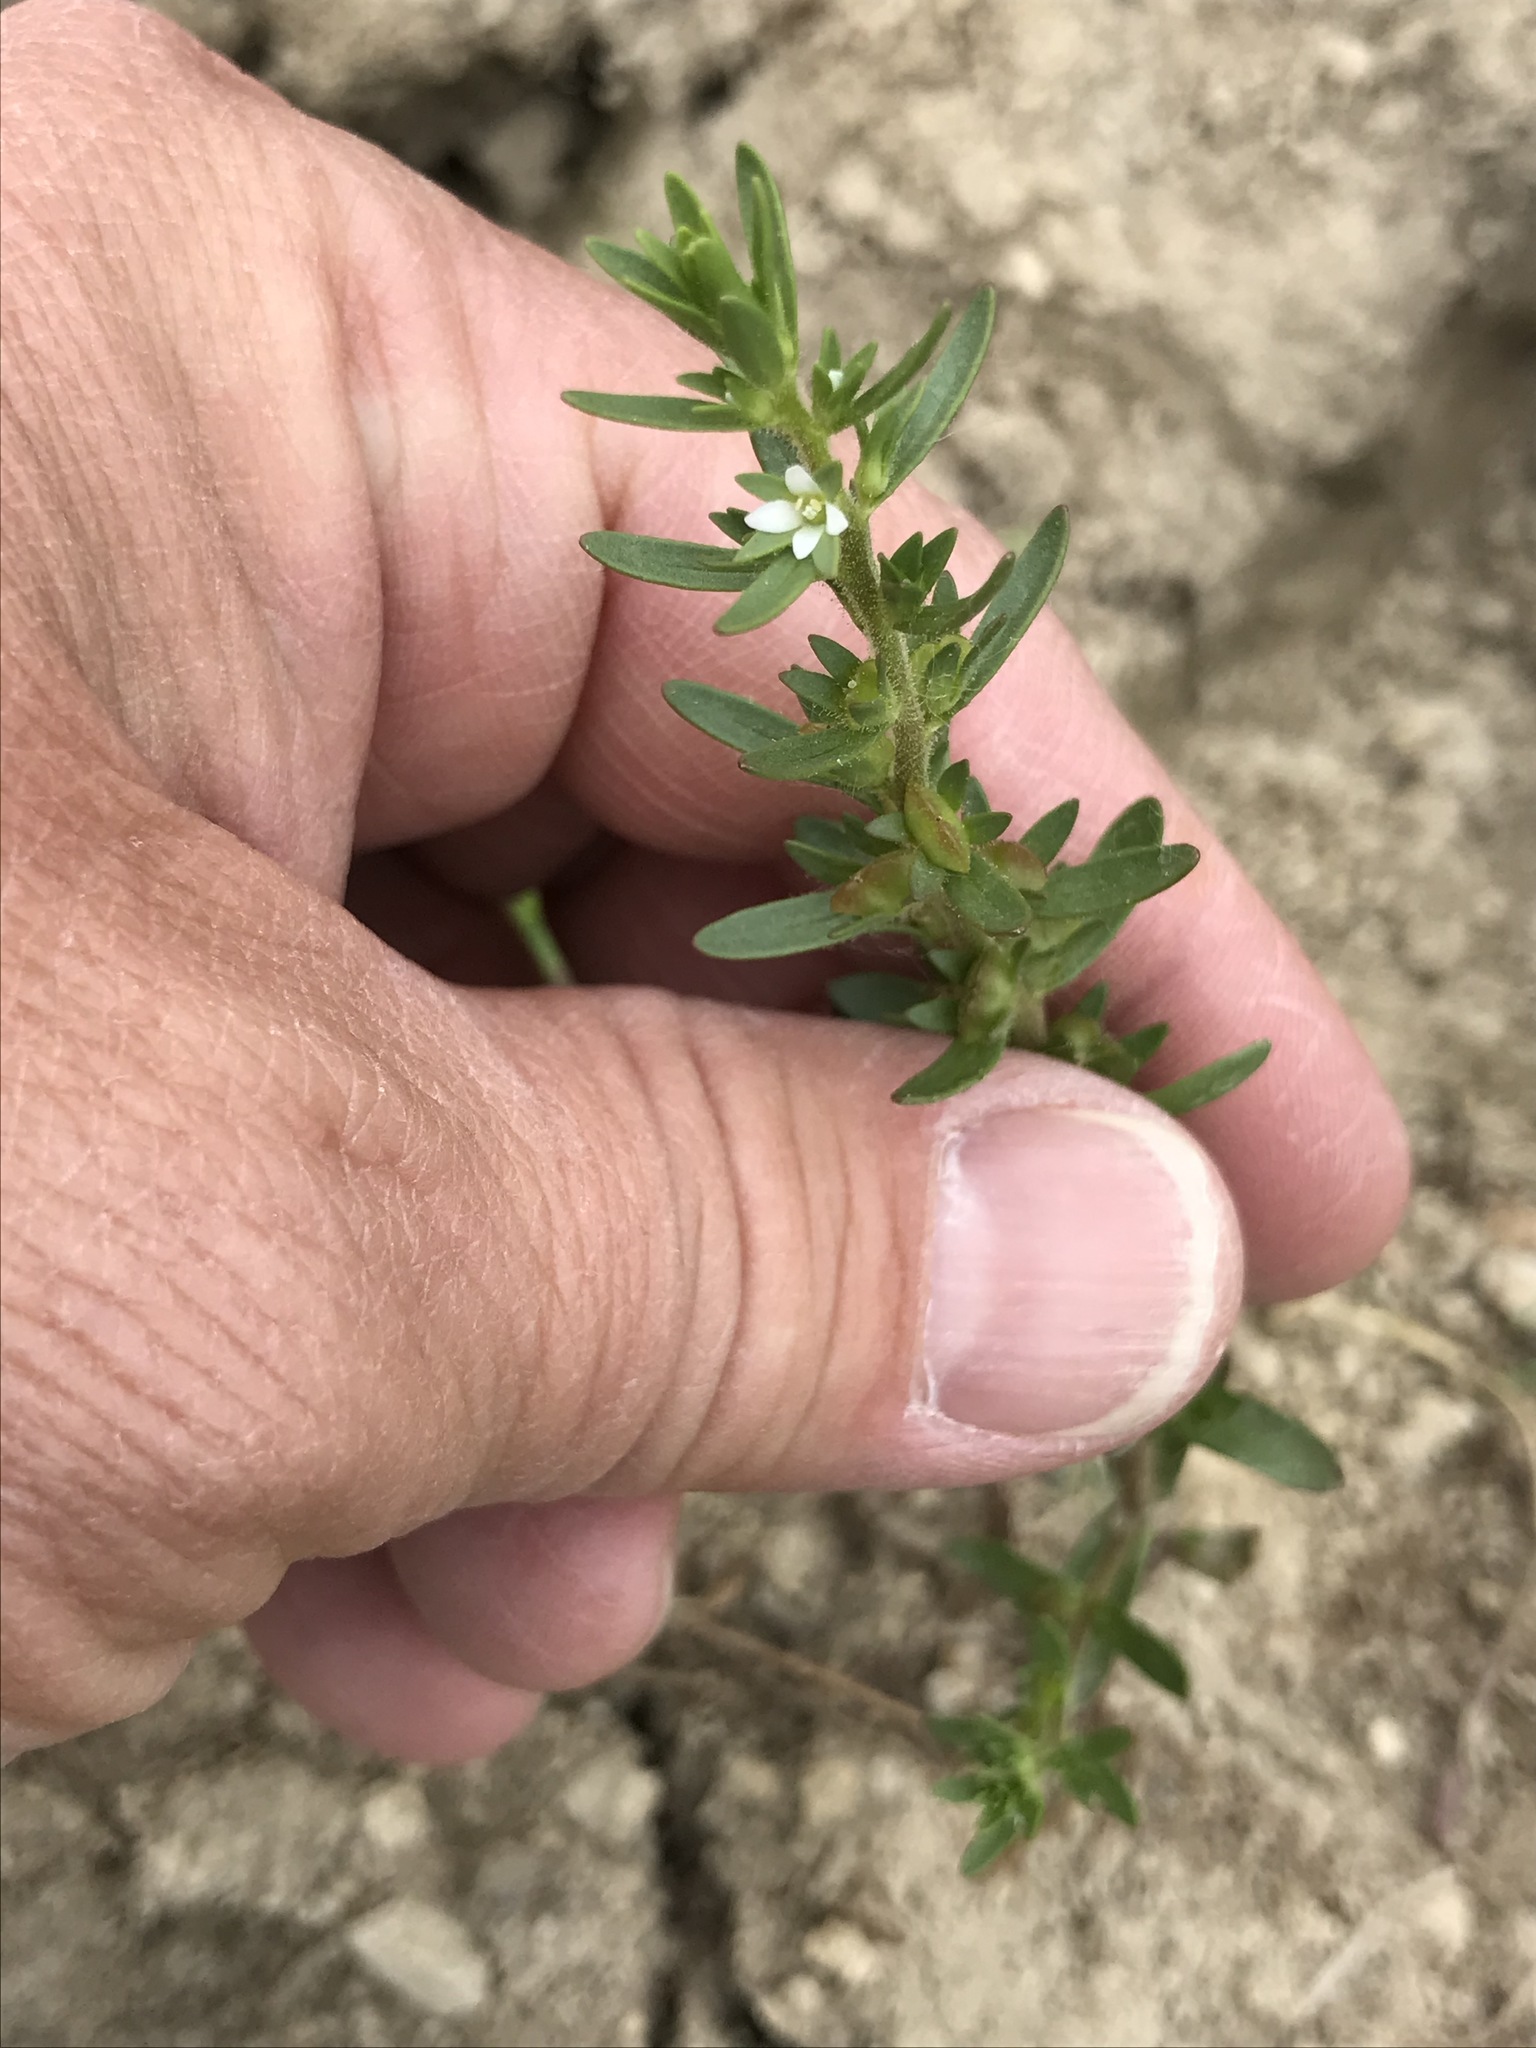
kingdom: Plantae
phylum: Tracheophyta
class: Magnoliopsida
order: Lamiales
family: Plantaginaceae
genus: Veronica
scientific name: Veronica peregrina
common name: Neckweed
